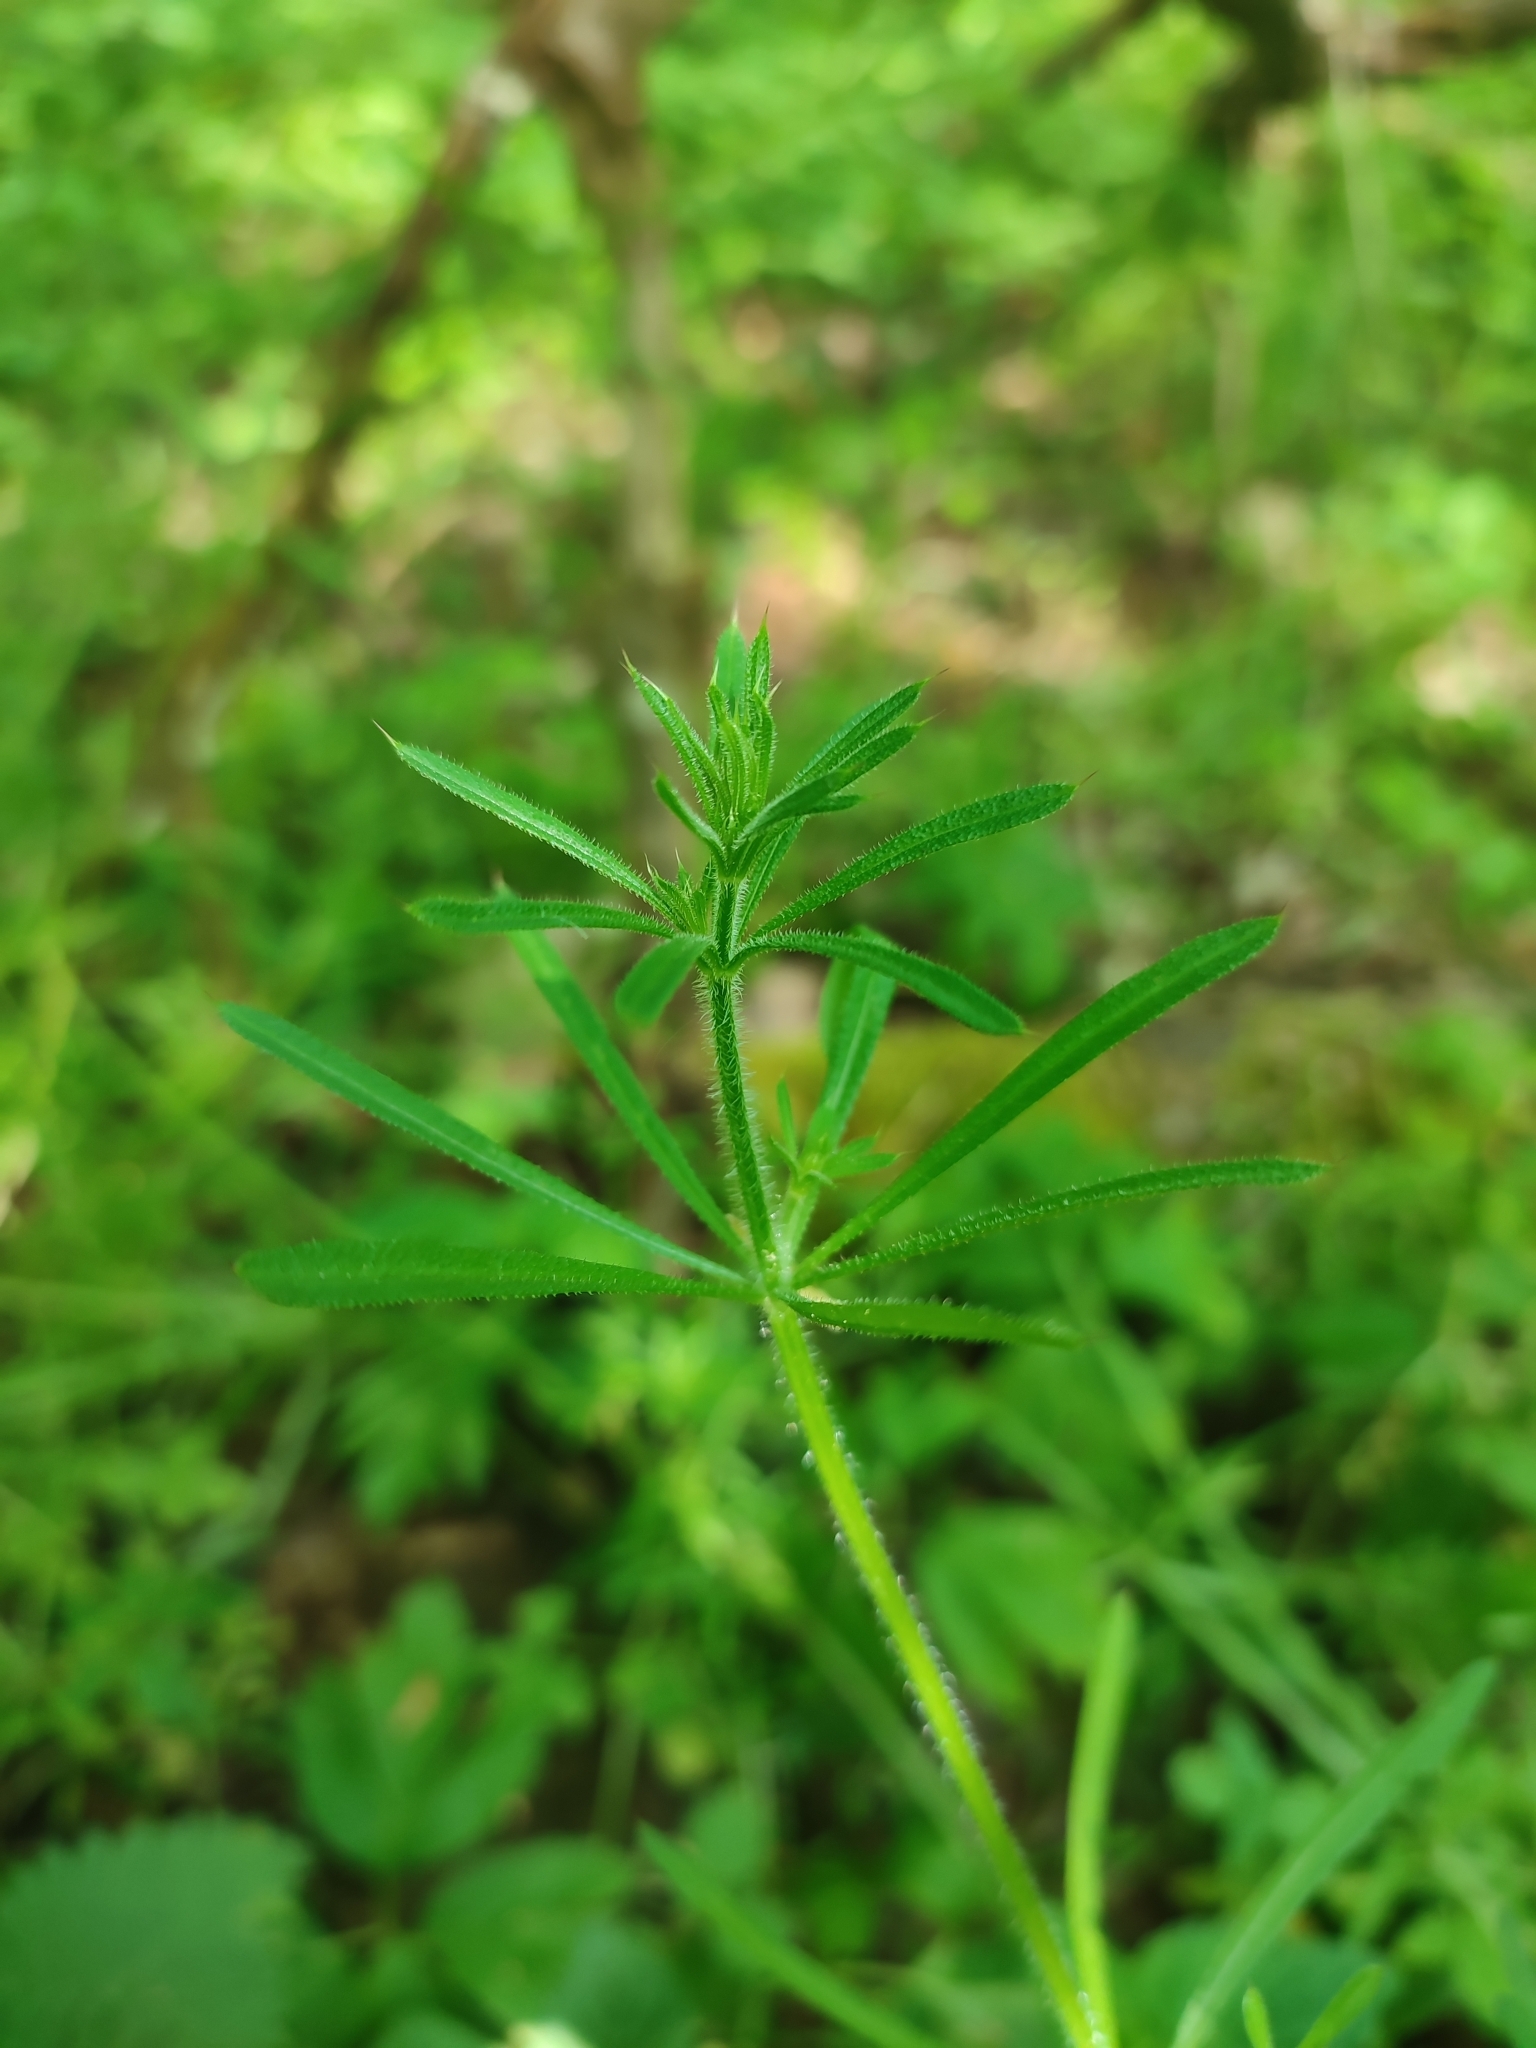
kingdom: Plantae
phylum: Tracheophyta
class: Magnoliopsida
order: Gentianales
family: Rubiaceae
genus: Galium
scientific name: Galium aparine
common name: Cleavers
